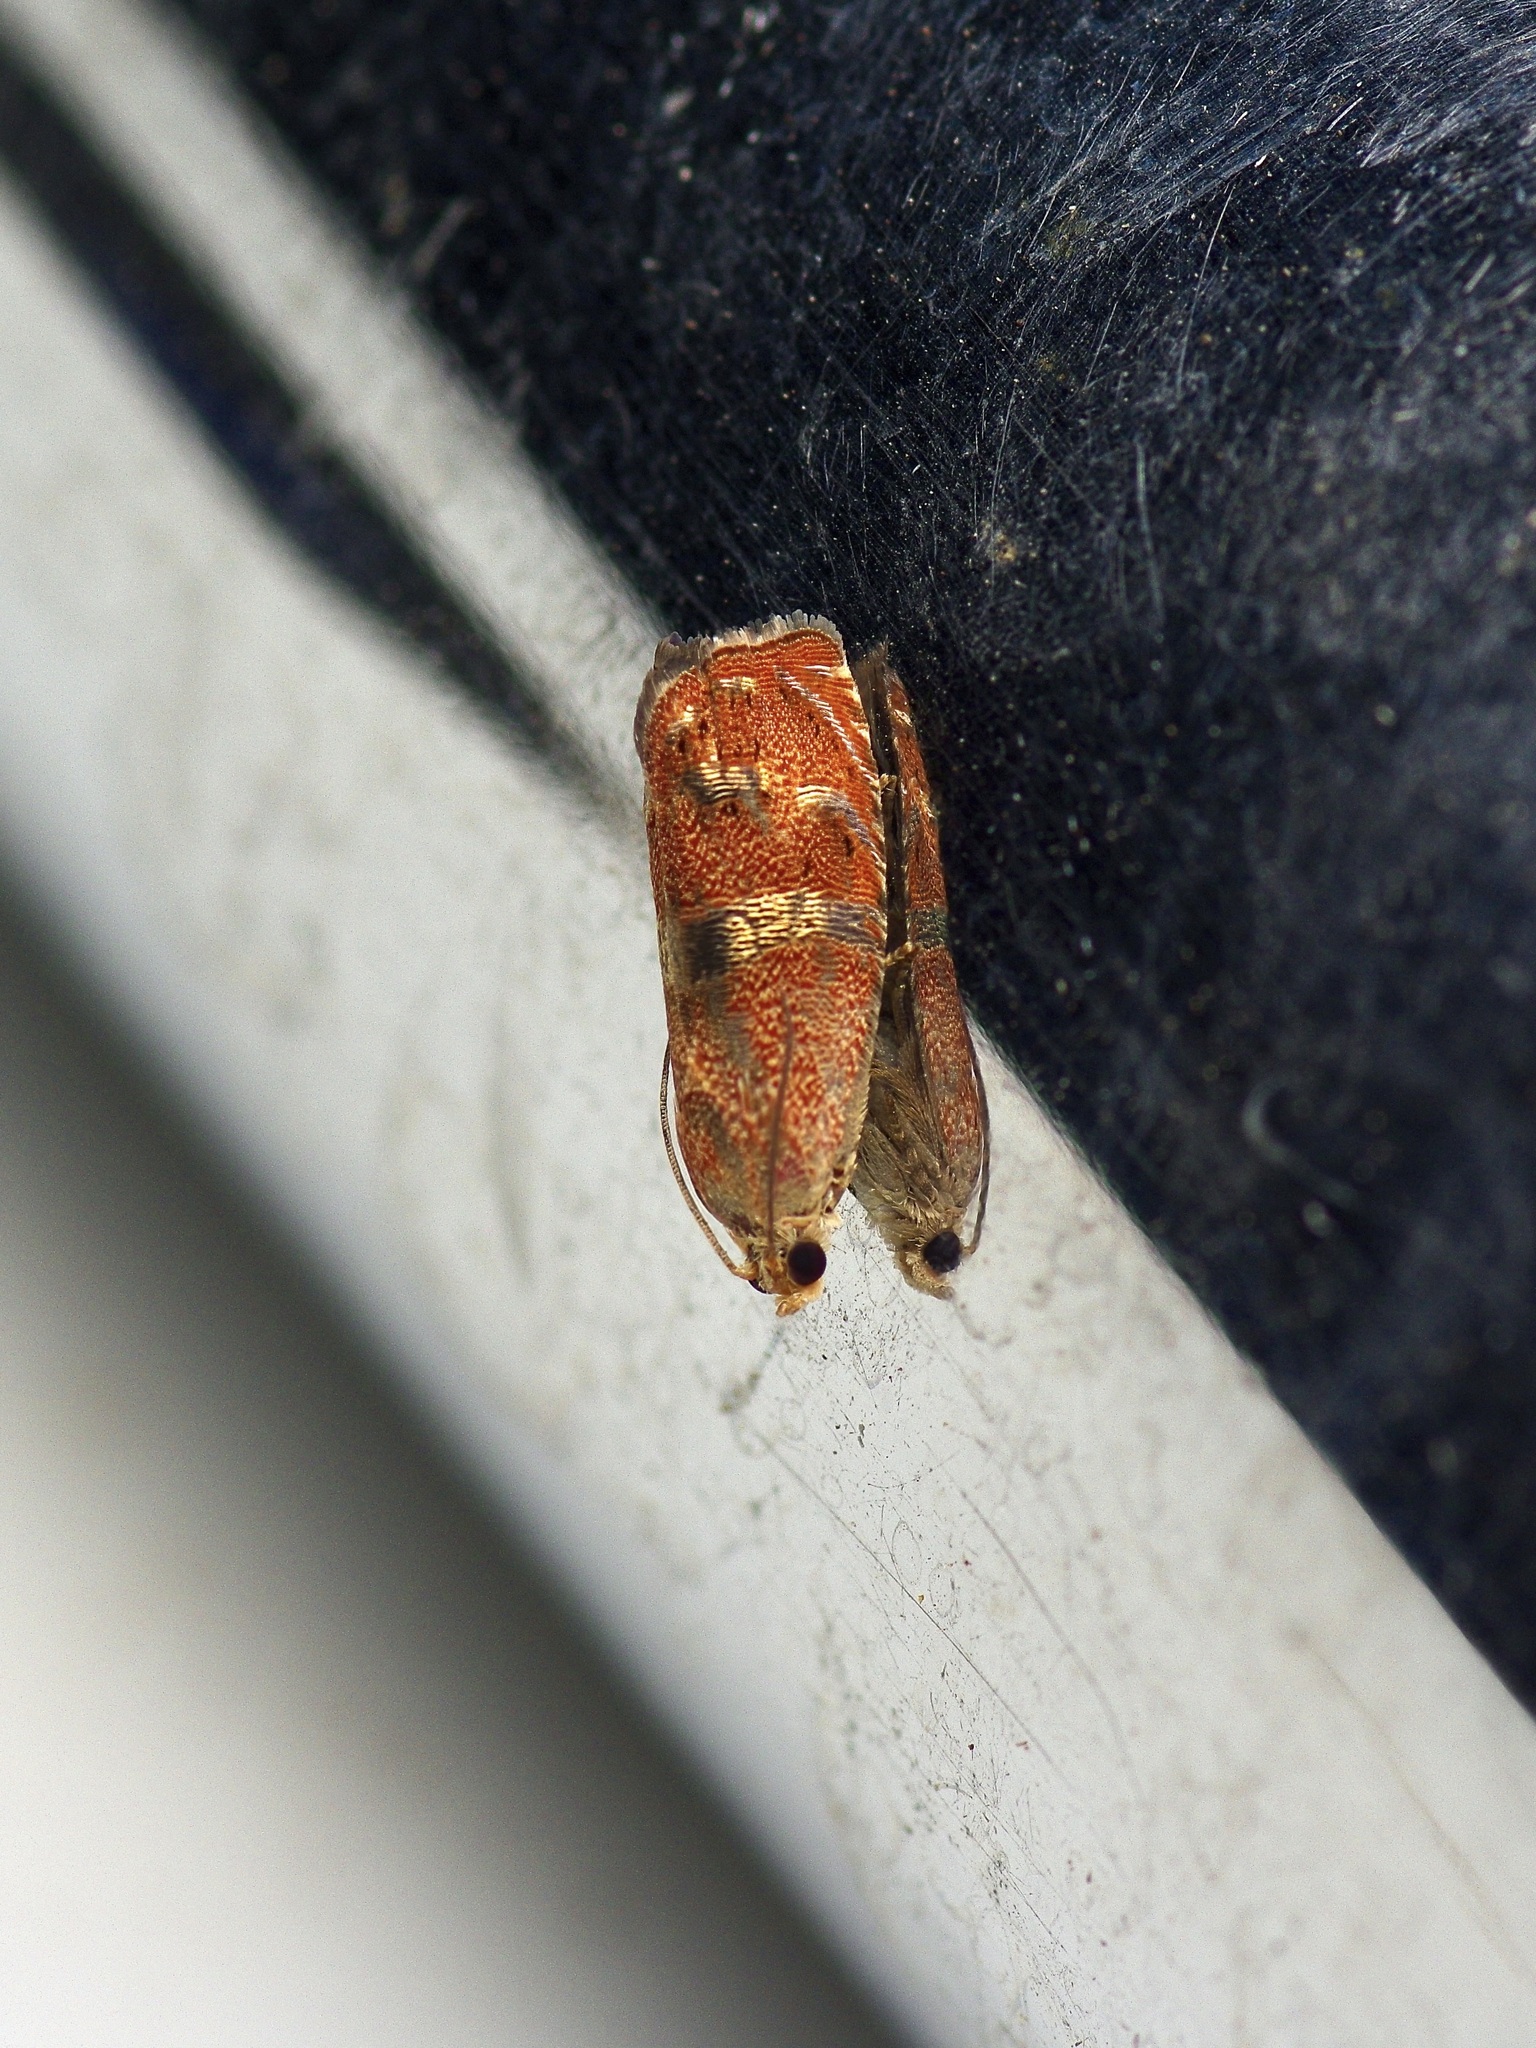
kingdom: Animalia
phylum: Arthropoda
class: Insecta
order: Lepidoptera
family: Tortricidae
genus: Cydia
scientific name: Cydia latiferreana
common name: Filbertworm moth
